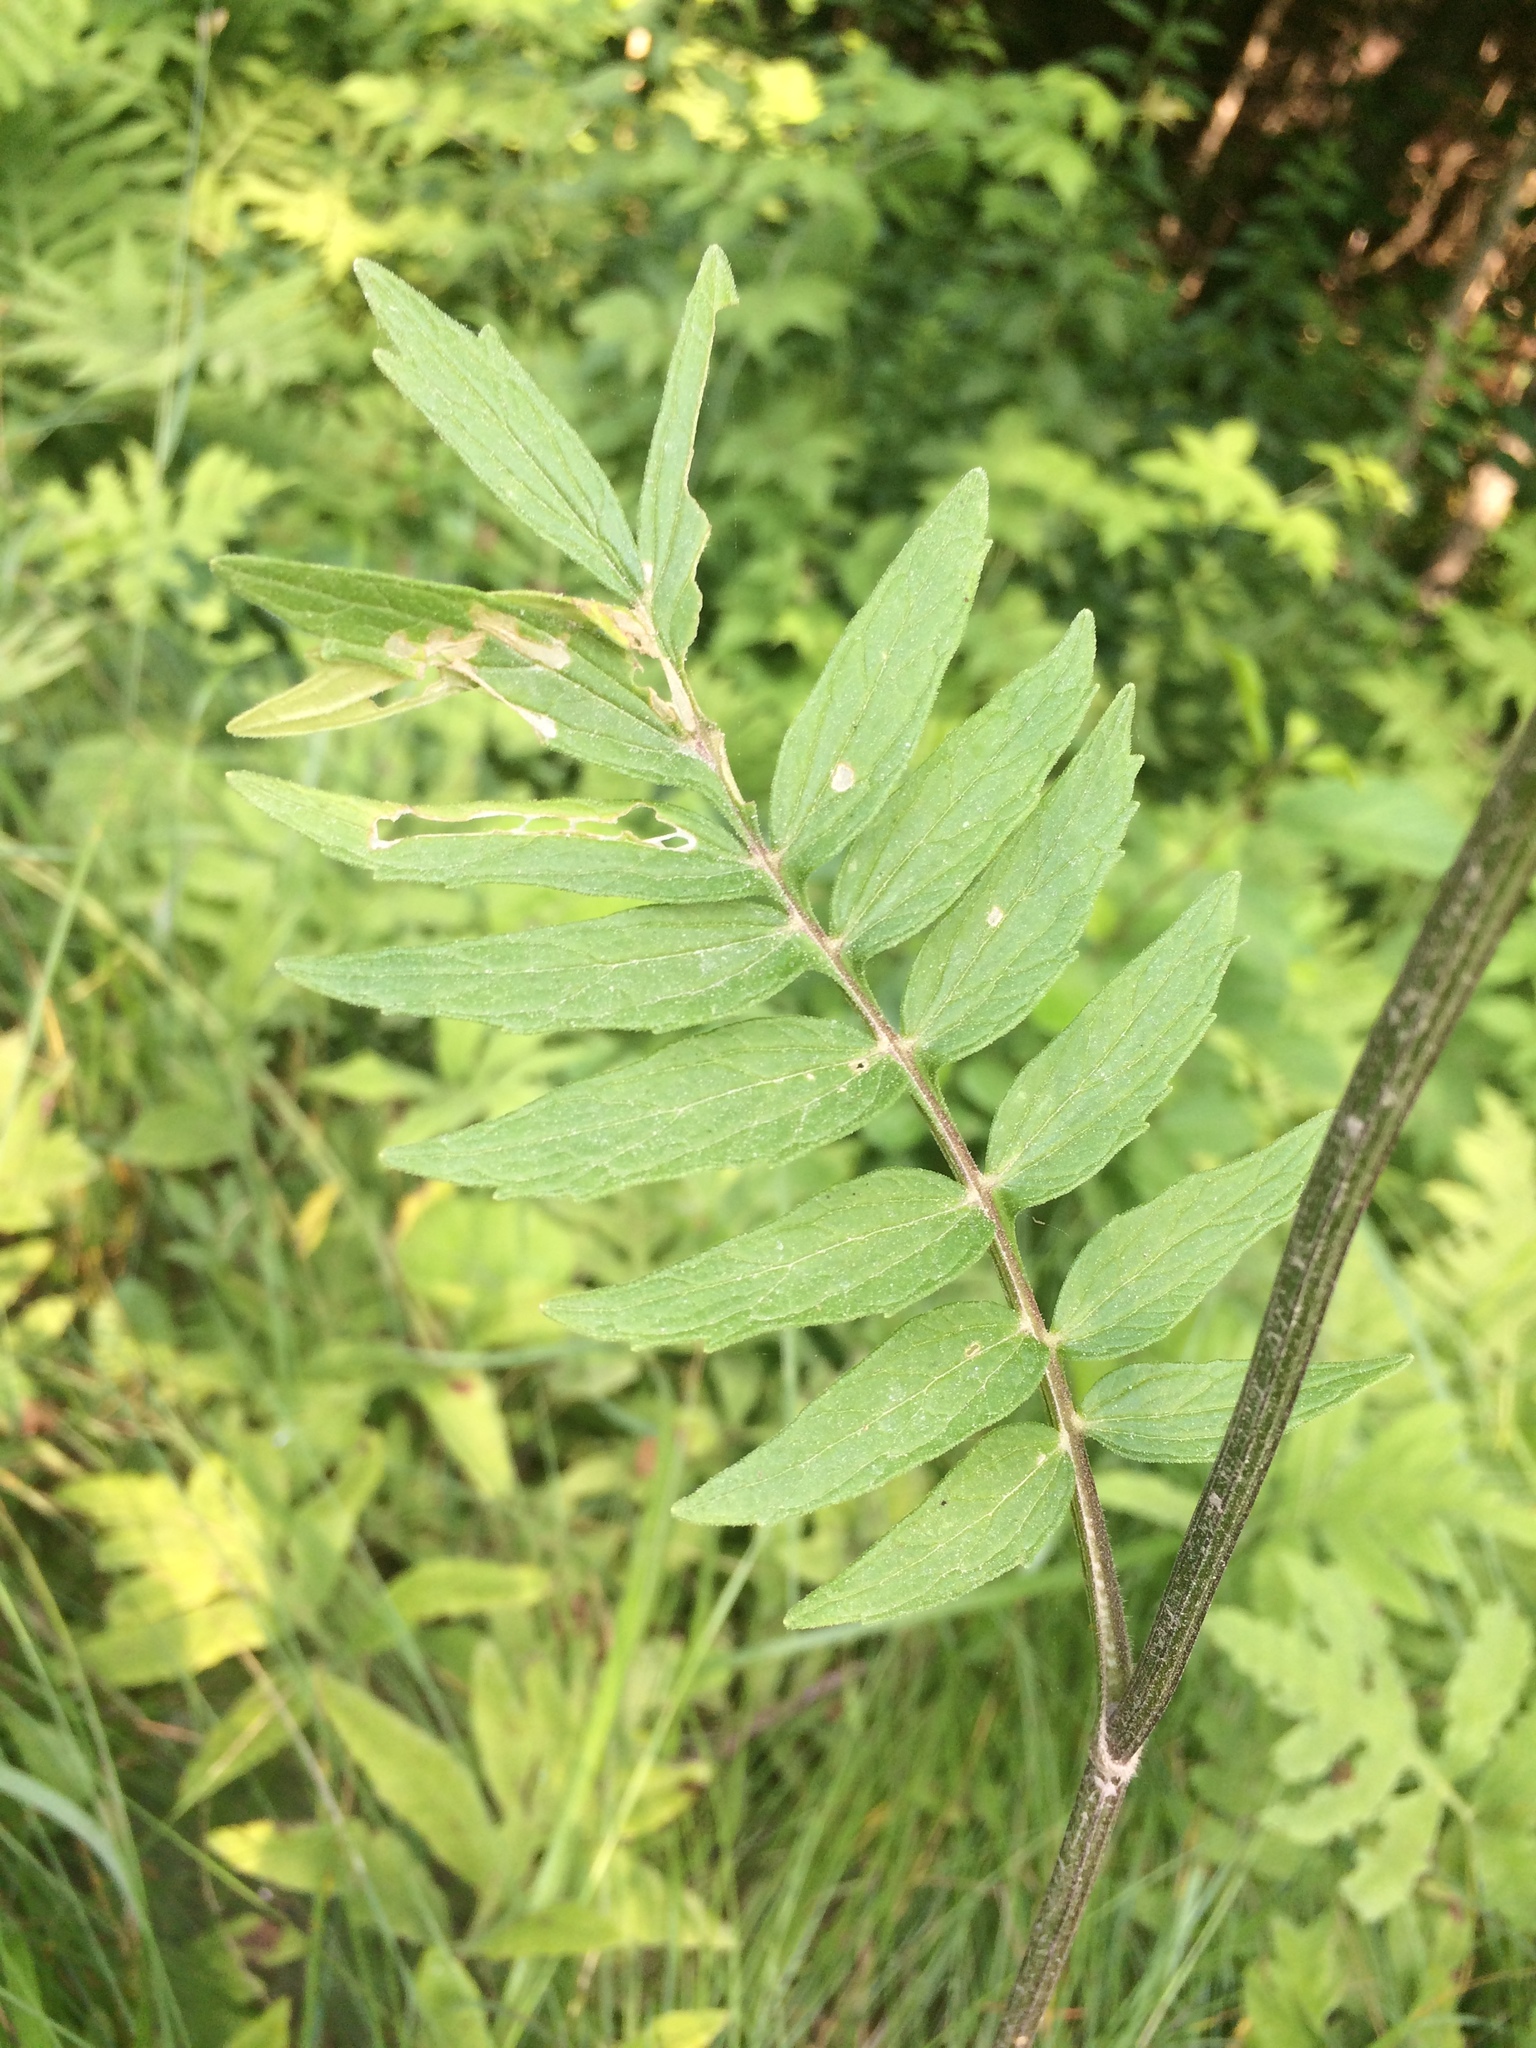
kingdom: Plantae
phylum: Tracheophyta
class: Magnoliopsida
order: Dipsacales
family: Caprifoliaceae
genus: Valeriana
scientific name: Valeriana officinalis
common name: Common valerian
